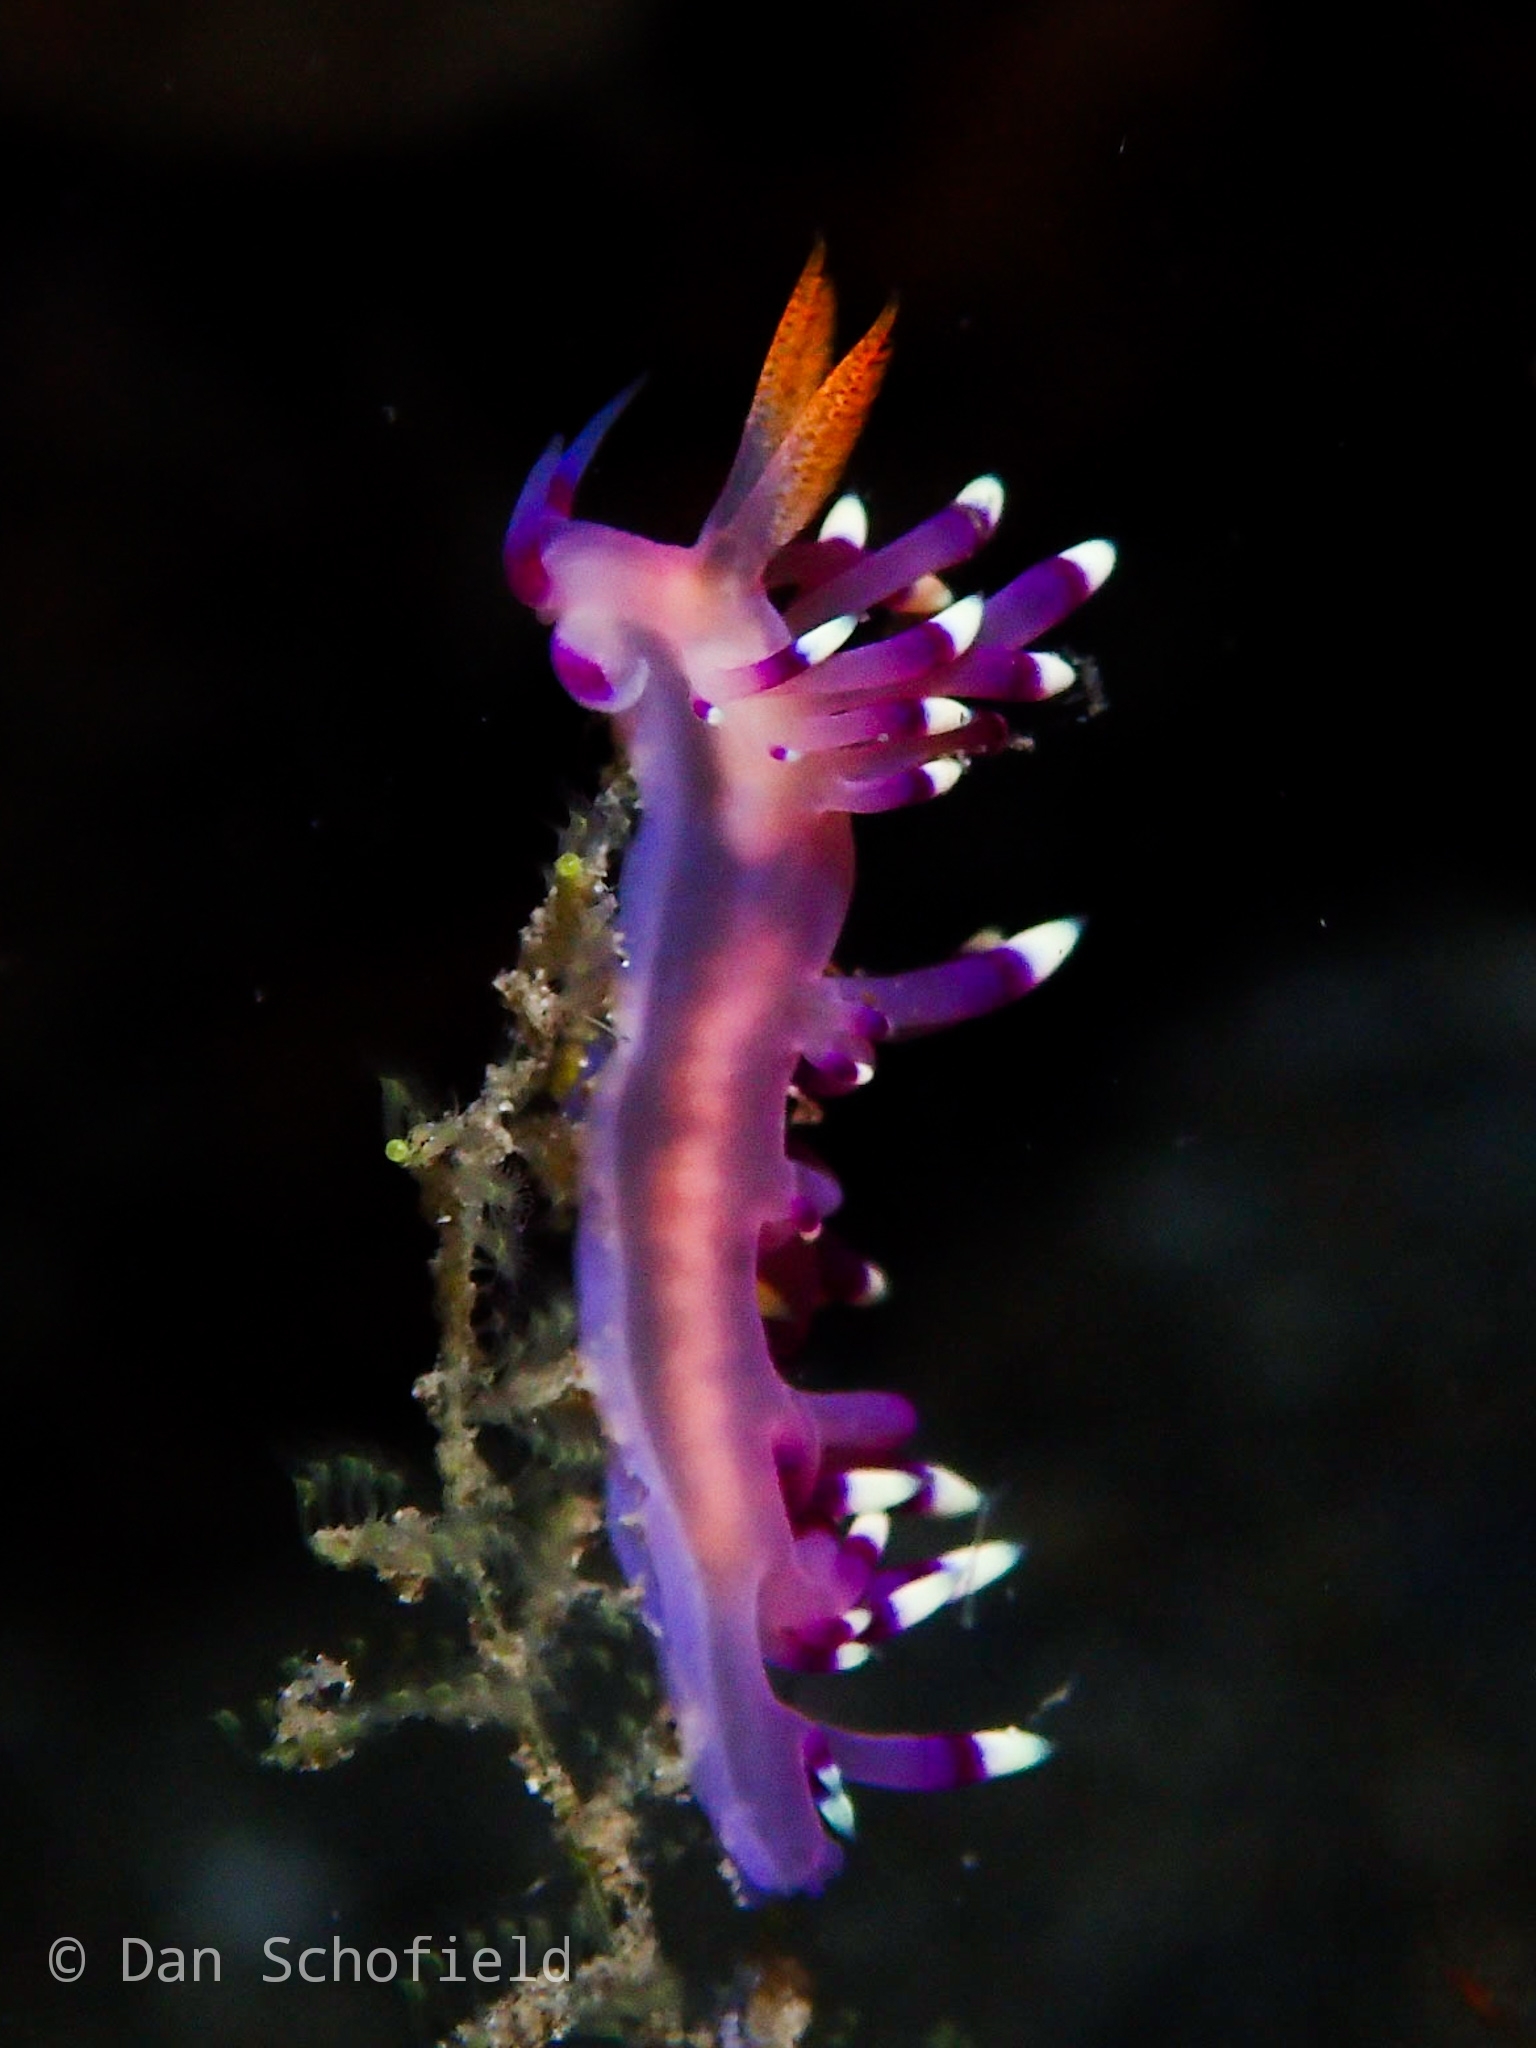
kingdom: Animalia
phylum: Mollusca
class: Gastropoda
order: Nudibranchia
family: Flabellinidae
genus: Coryphellina
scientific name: Coryphellina exoptata
